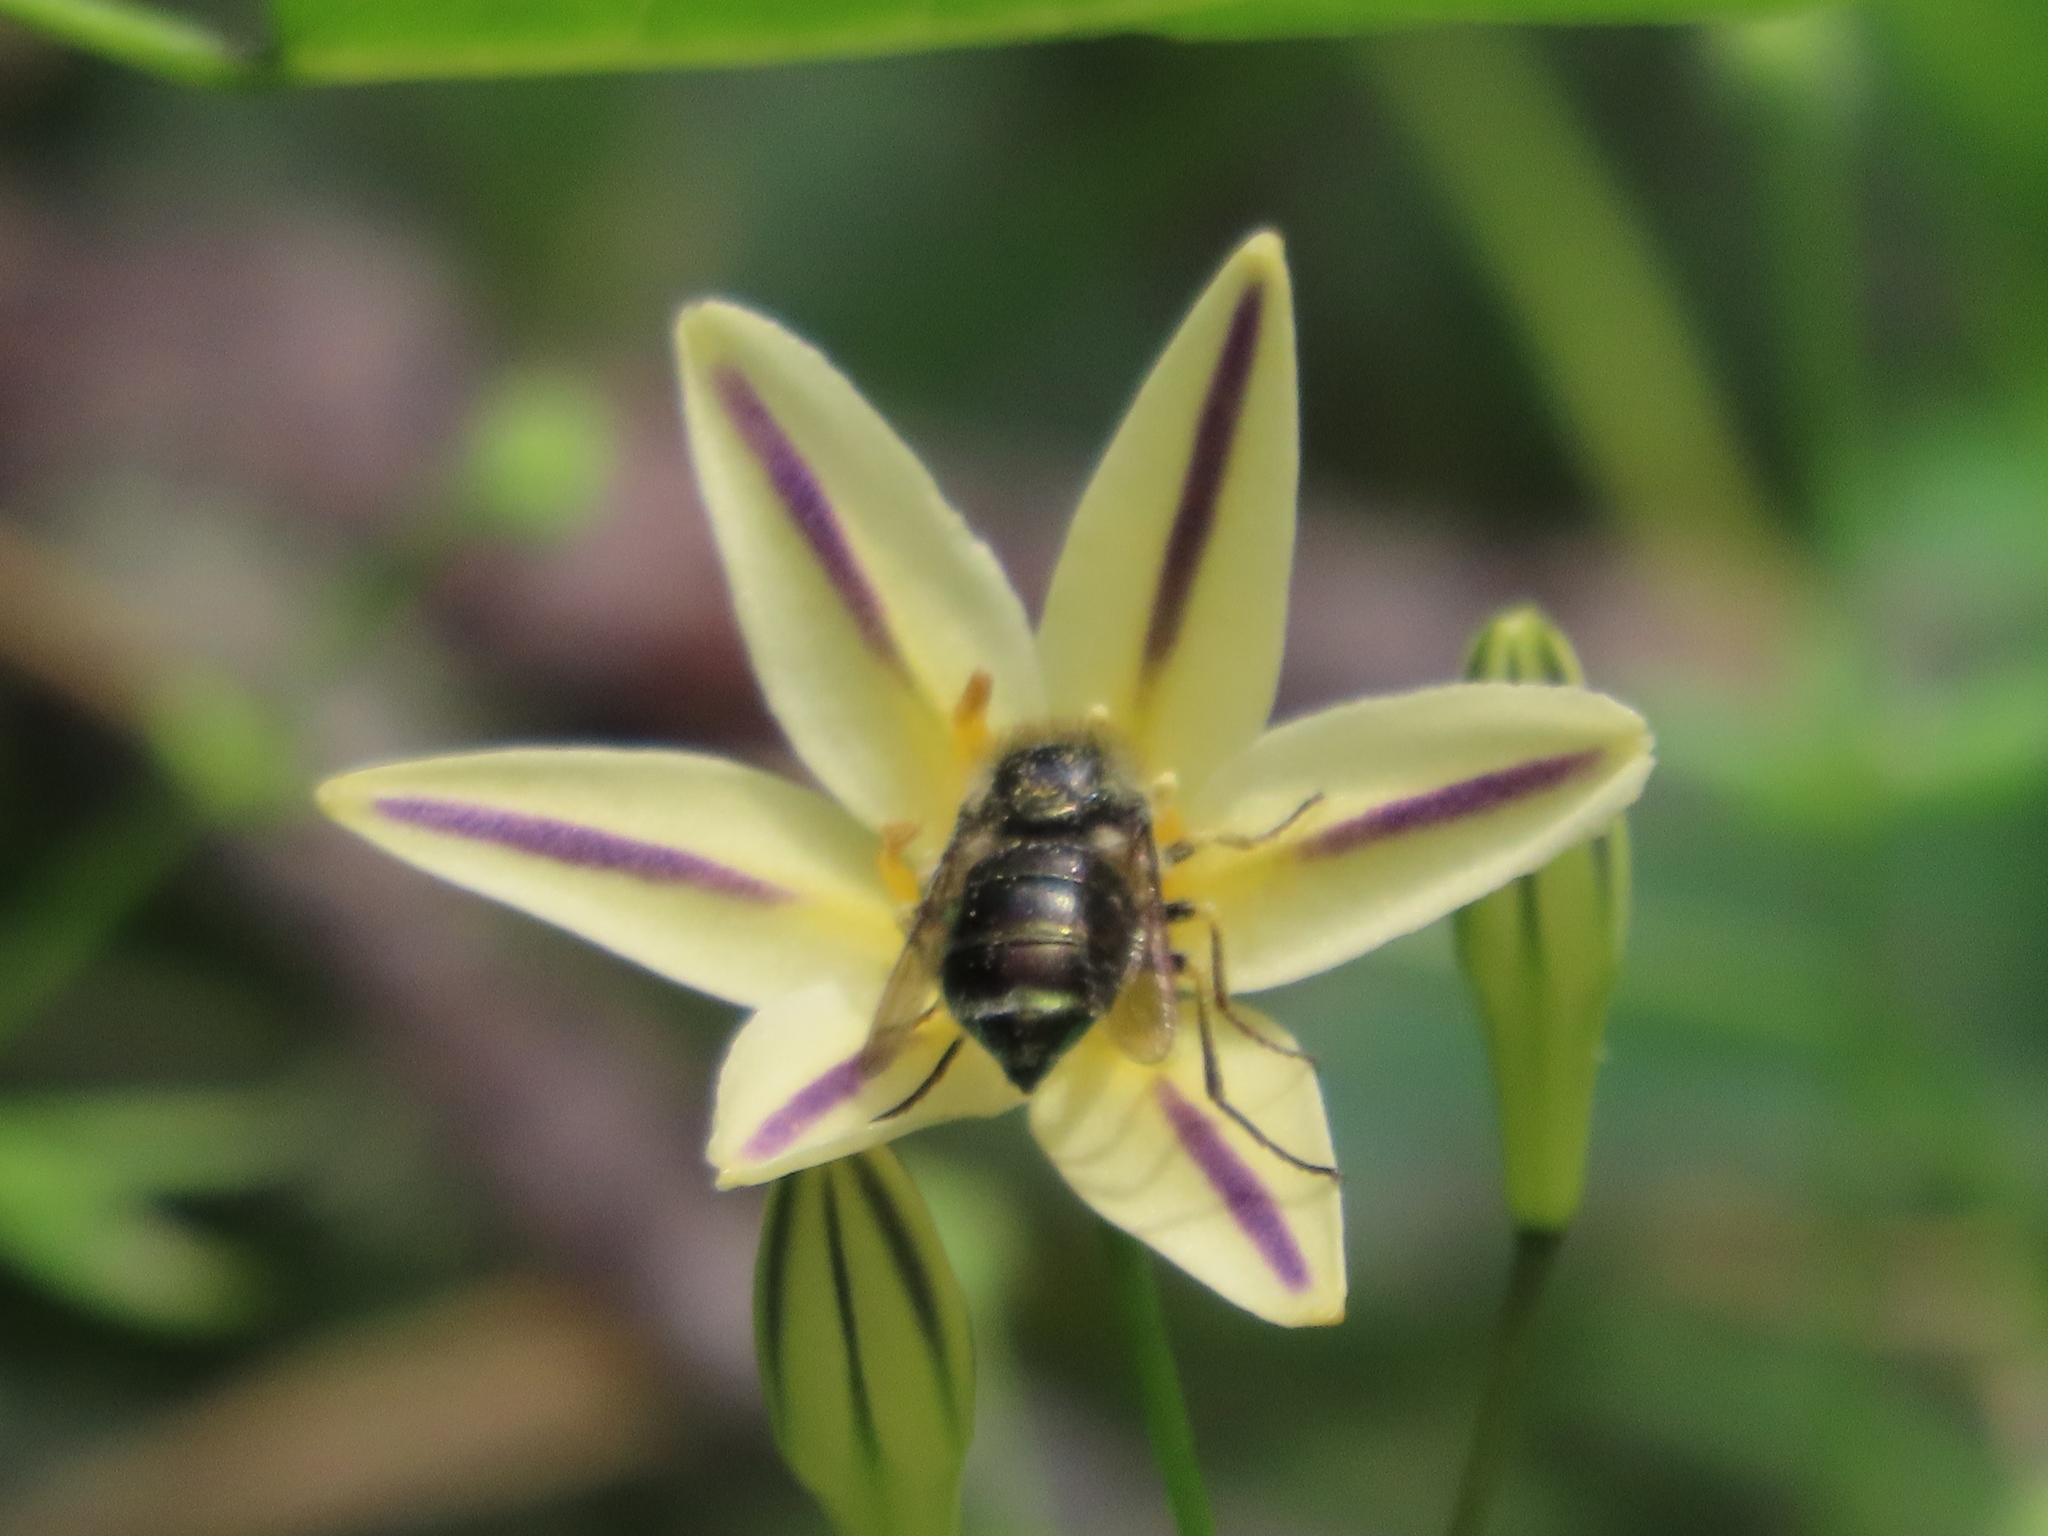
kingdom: Animalia
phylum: Arthropoda
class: Insecta
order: Diptera
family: Acroceridae
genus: Eulonchus
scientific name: Eulonchus tristis
